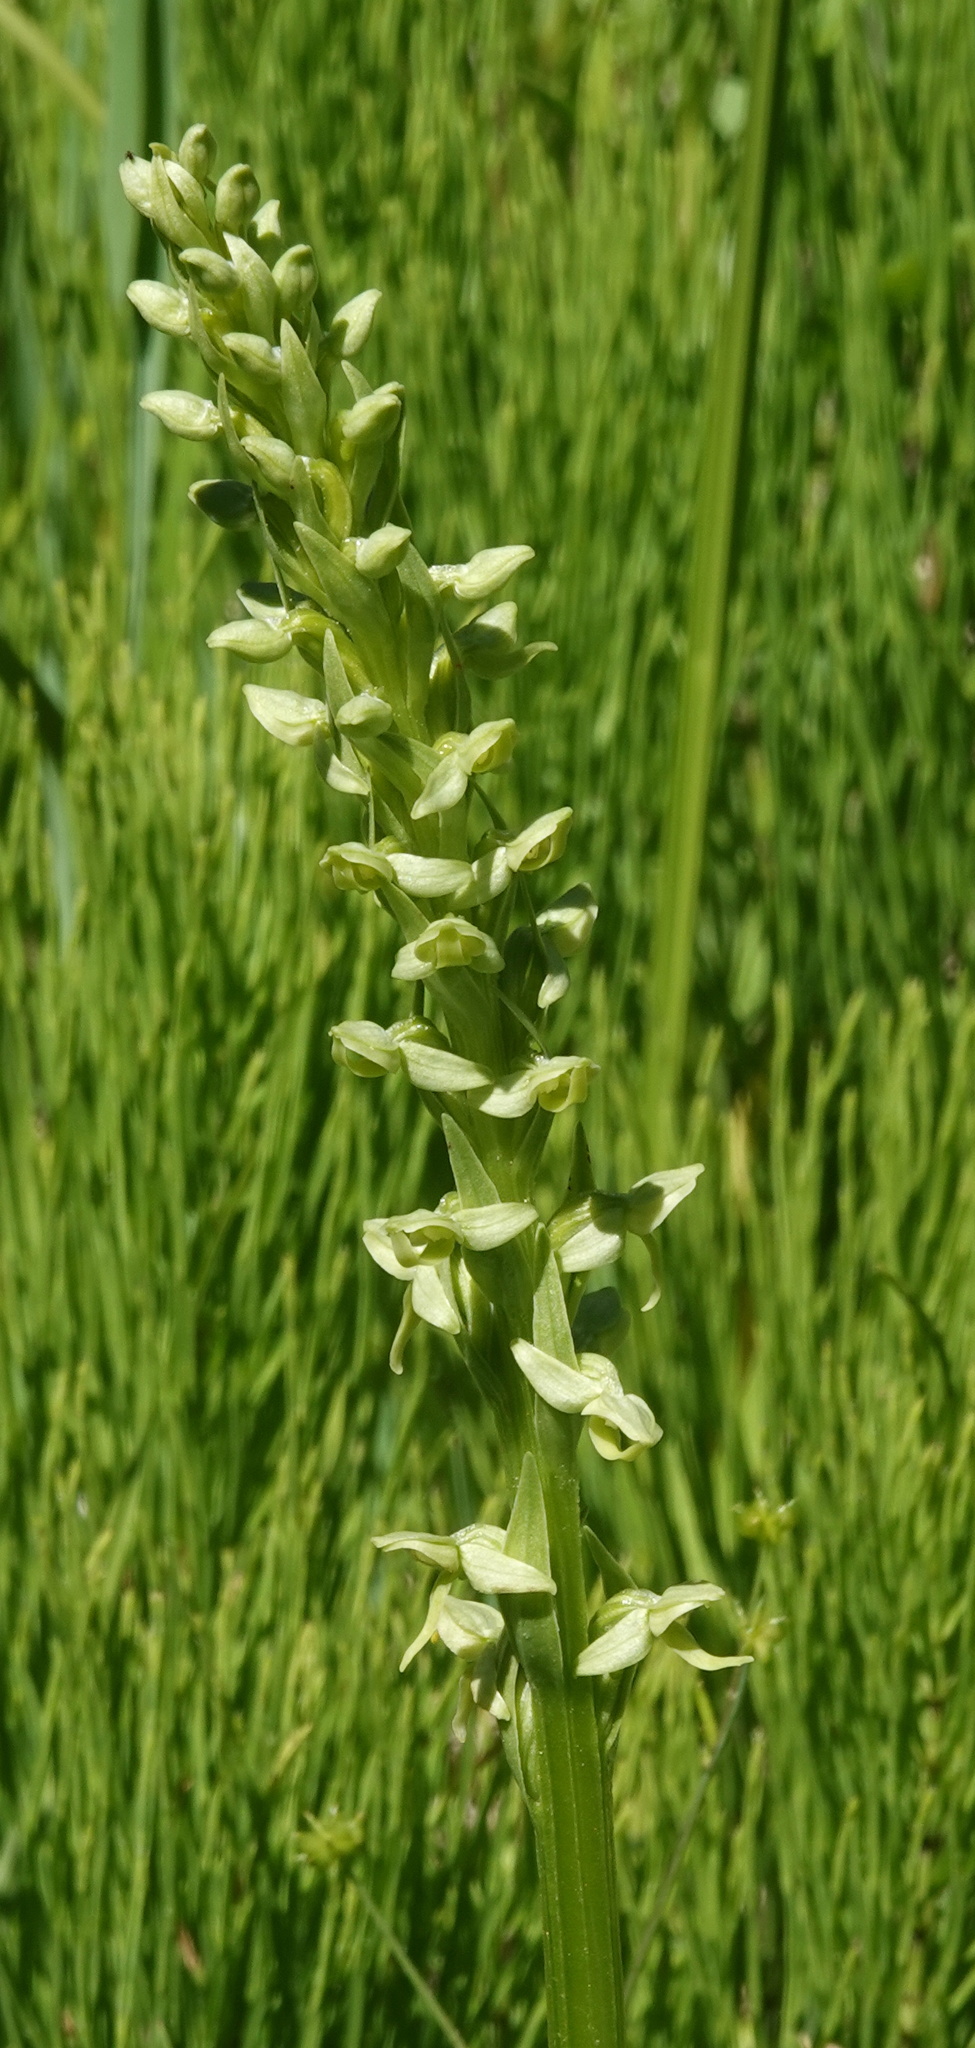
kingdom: Plantae
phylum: Tracheophyta
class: Liliopsida
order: Asparagales
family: Orchidaceae
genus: Platanthera
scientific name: Platanthera huronensis
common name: Fragrant green orchid
